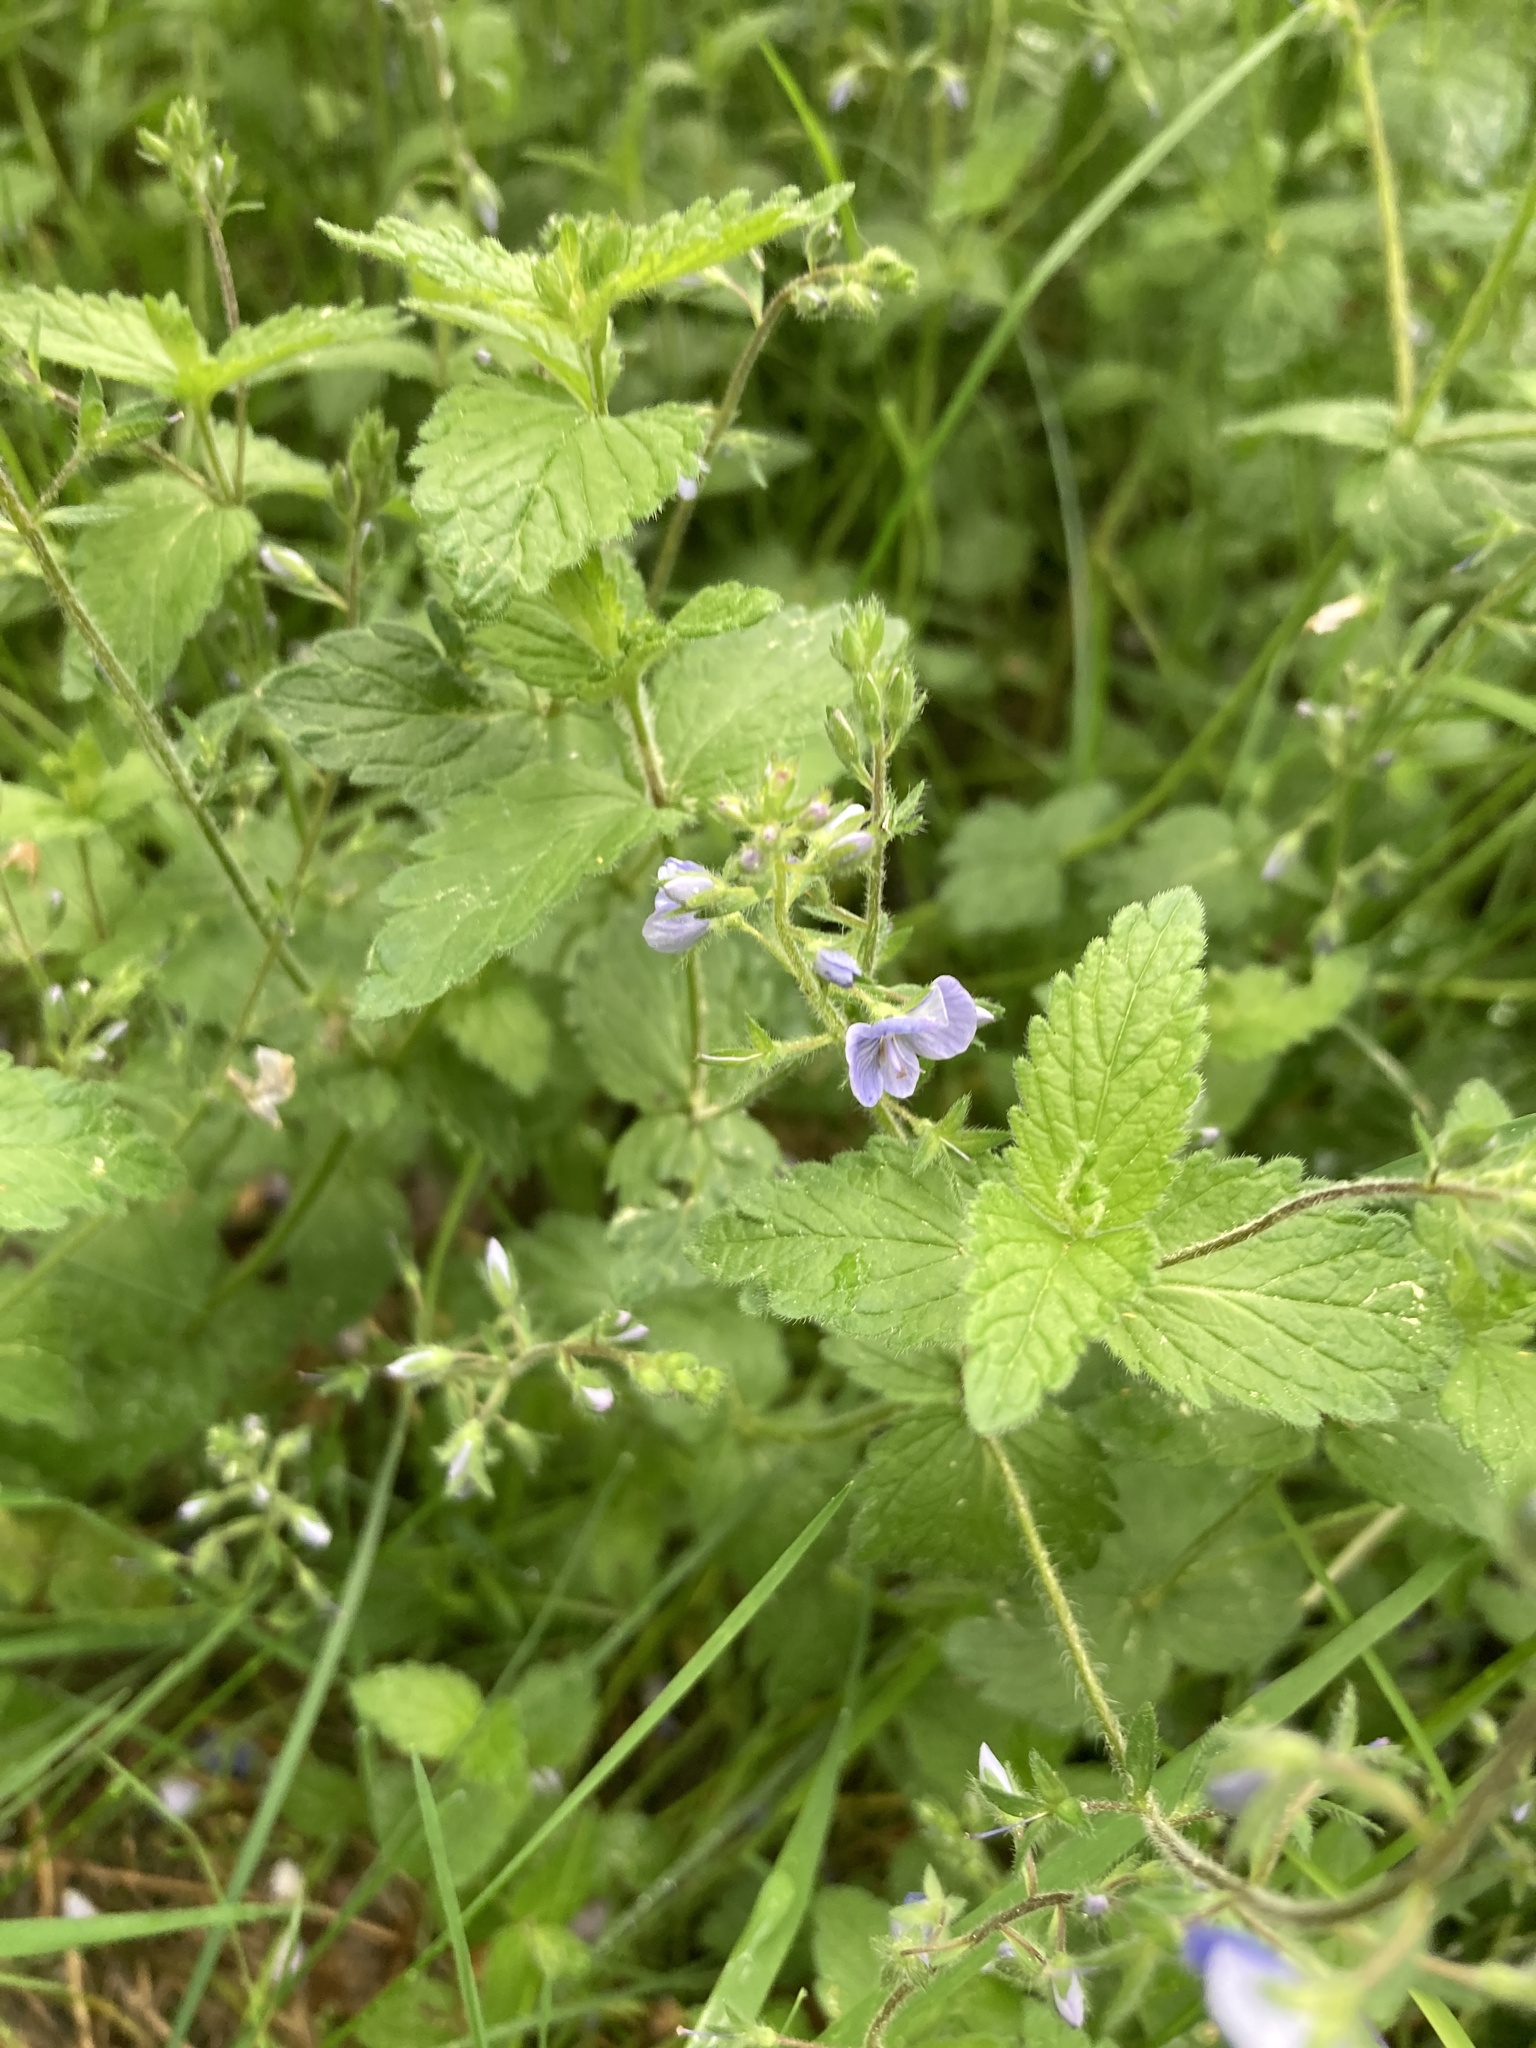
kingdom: Plantae
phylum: Tracheophyta
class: Magnoliopsida
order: Lamiales
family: Plantaginaceae
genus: Veronica
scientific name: Veronica chamaedrys
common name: Germander speedwell
